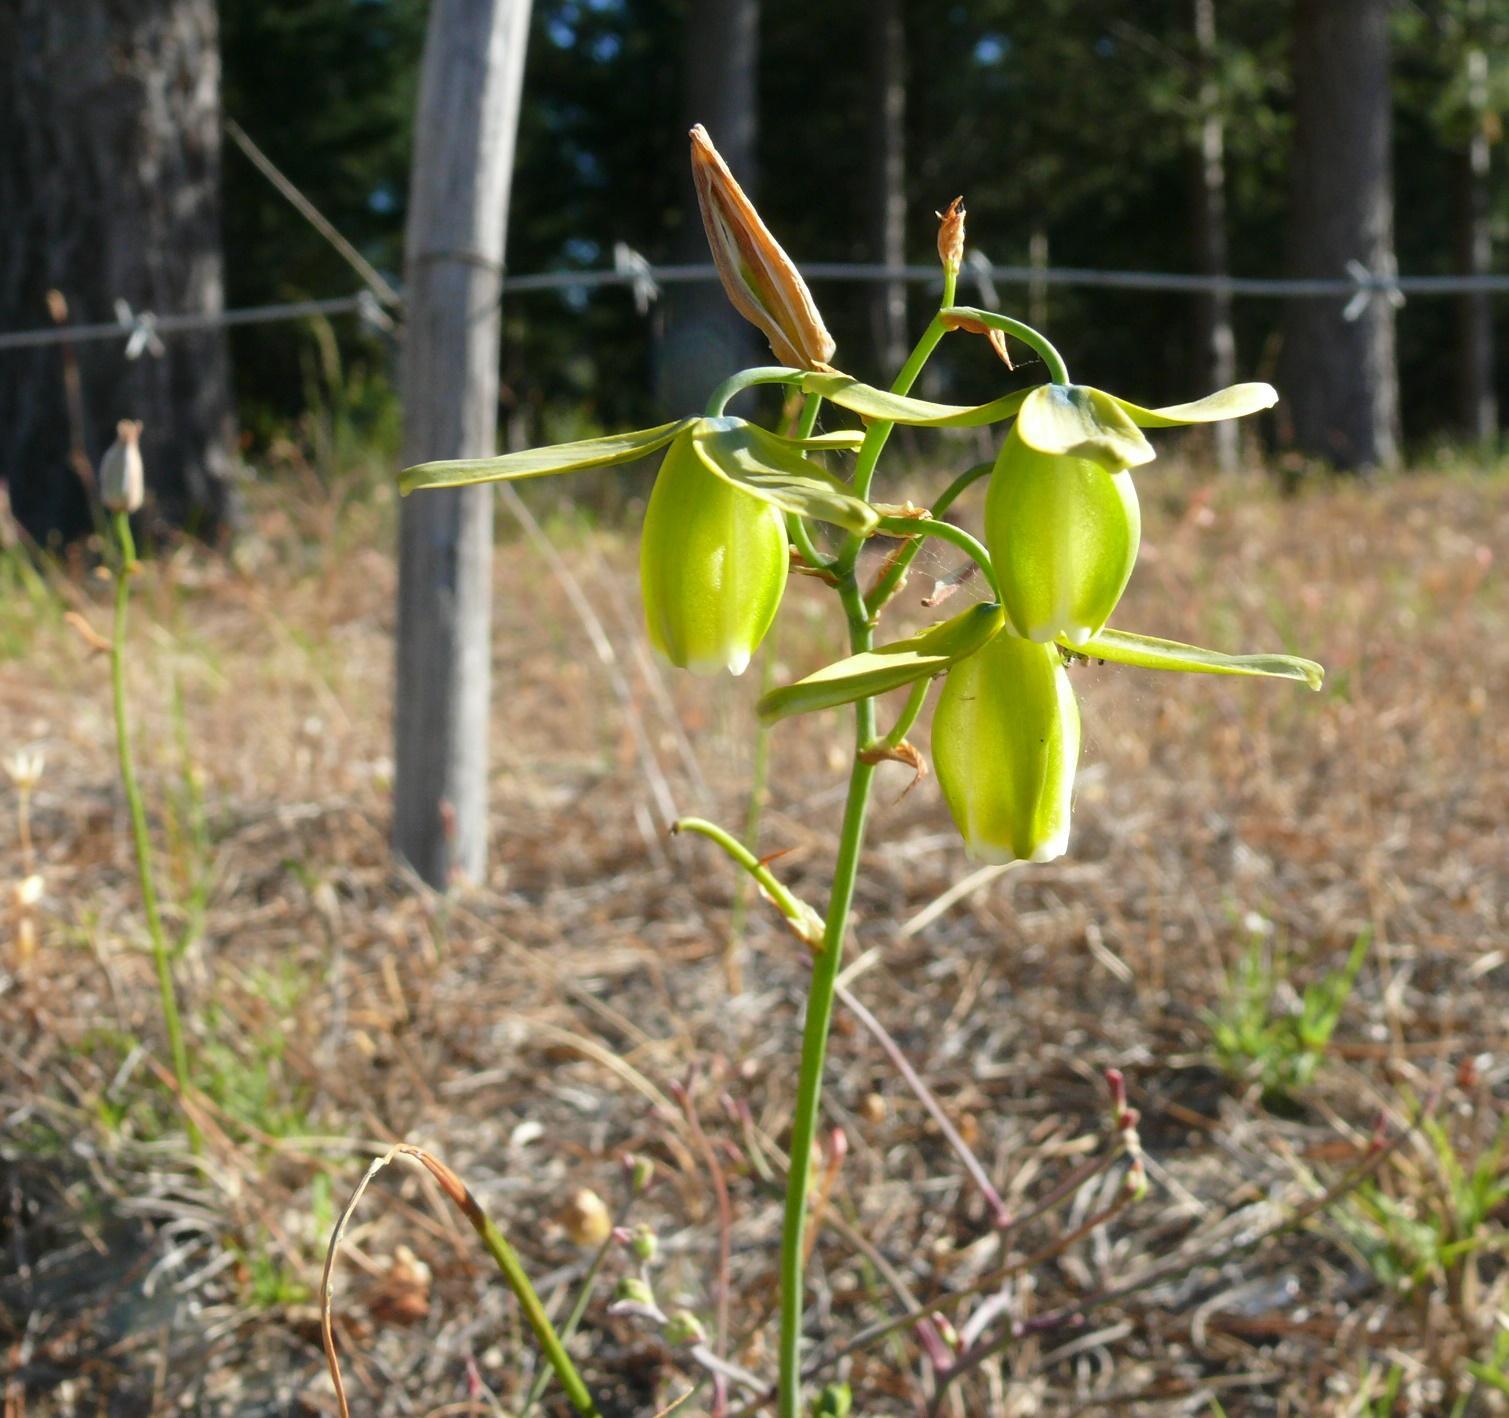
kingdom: Plantae
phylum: Tracheophyta
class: Liliopsida
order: Asparagales
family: Asparagaceae
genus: Albuca
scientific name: Albuca cooperi
